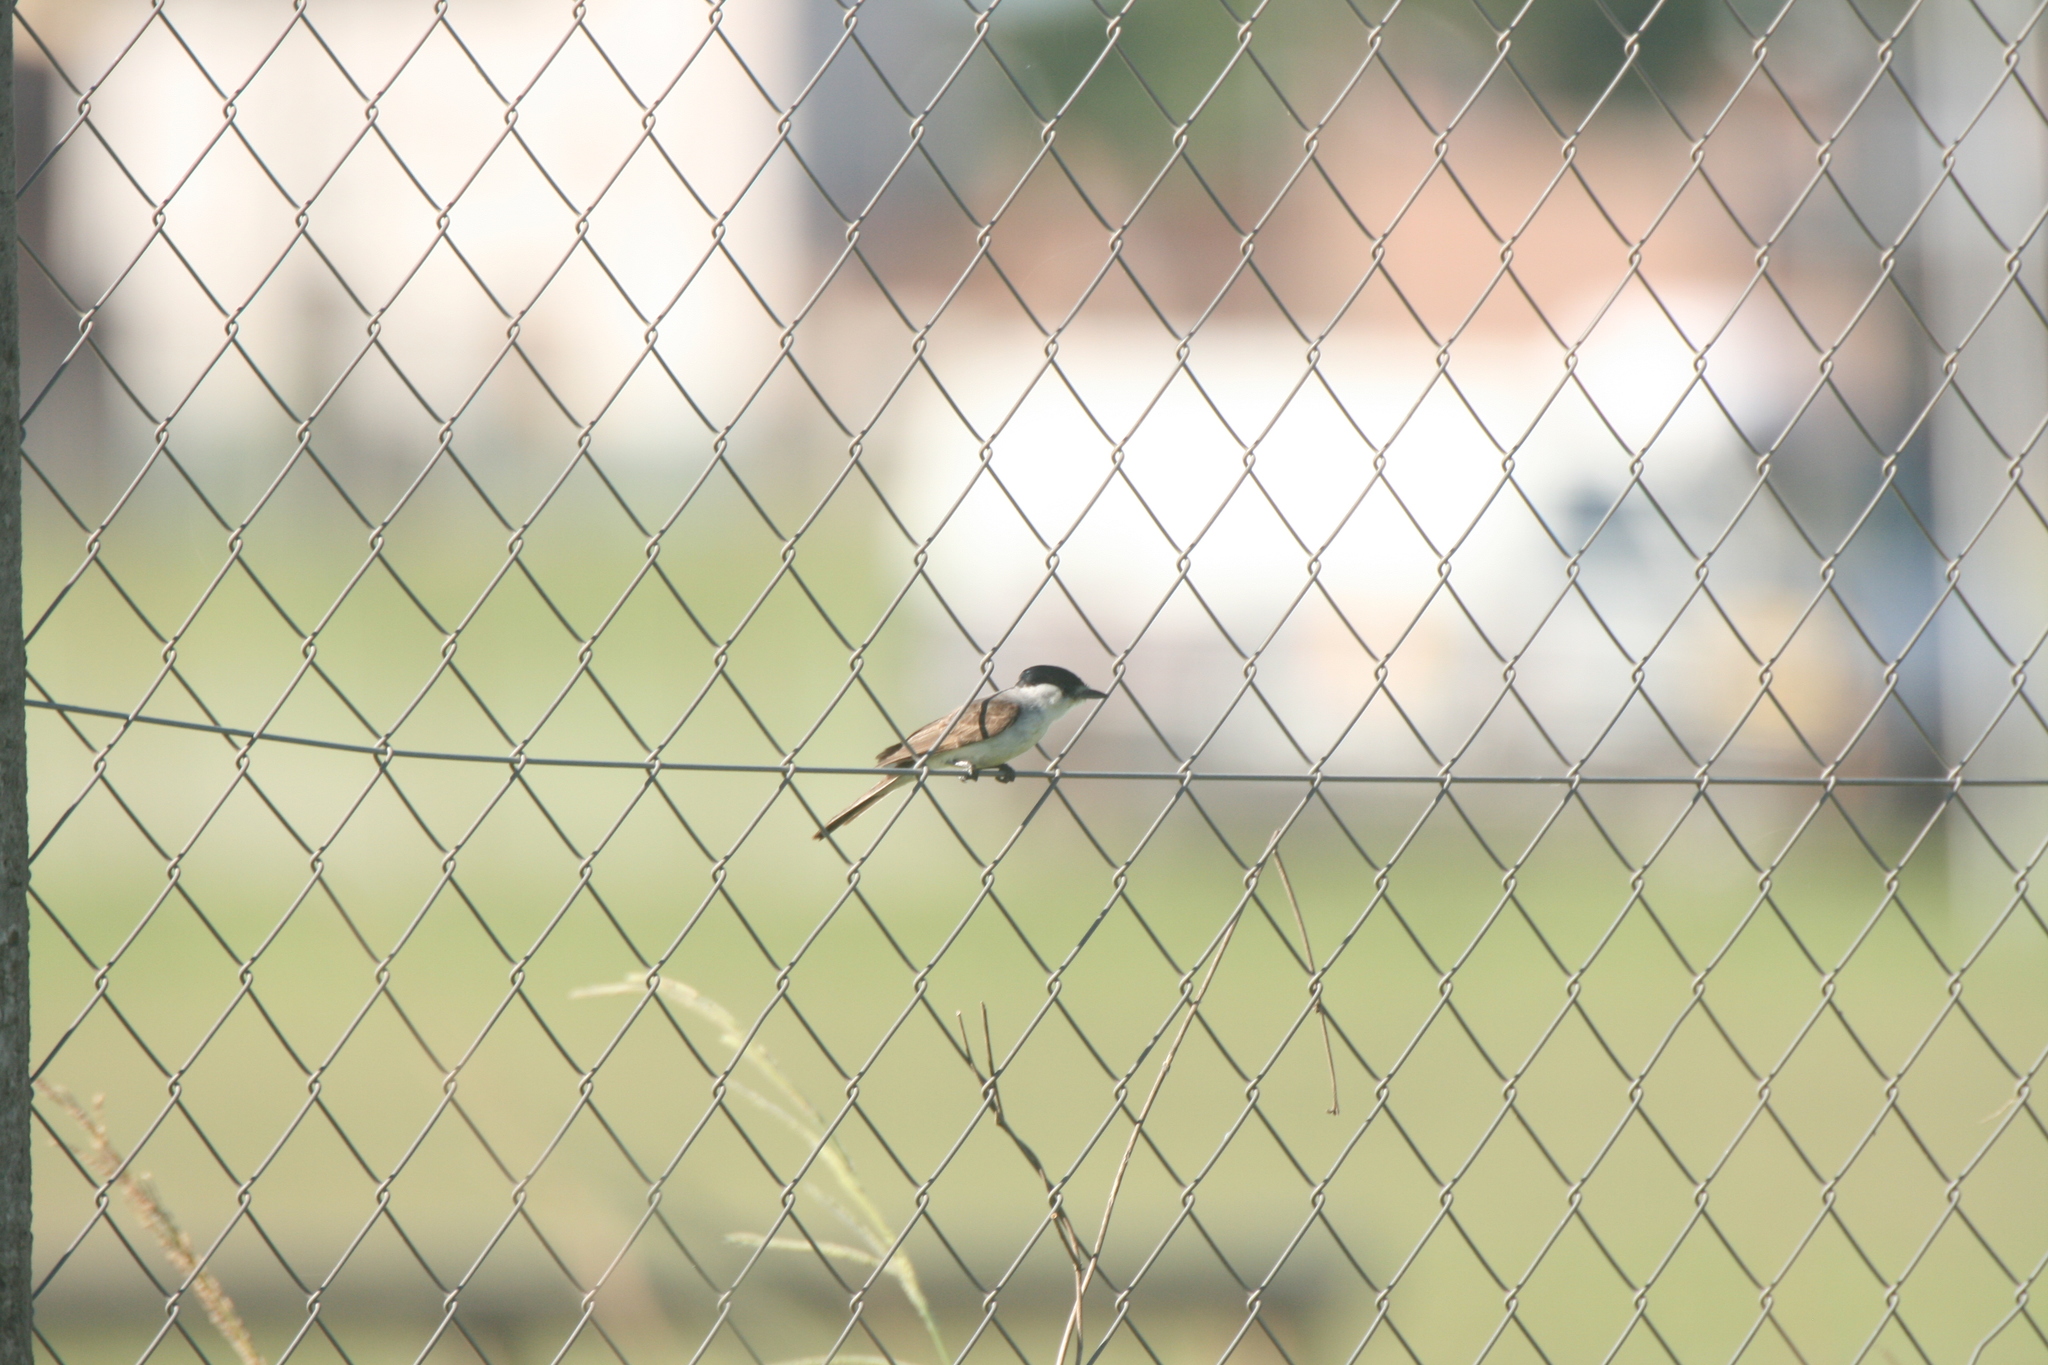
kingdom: Animalia
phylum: Chordata
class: Aves
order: Passeriformes
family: Cotingidae
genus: Xenopsaris
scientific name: Xenopsaris albinucha
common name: White-naped xenopsaris
